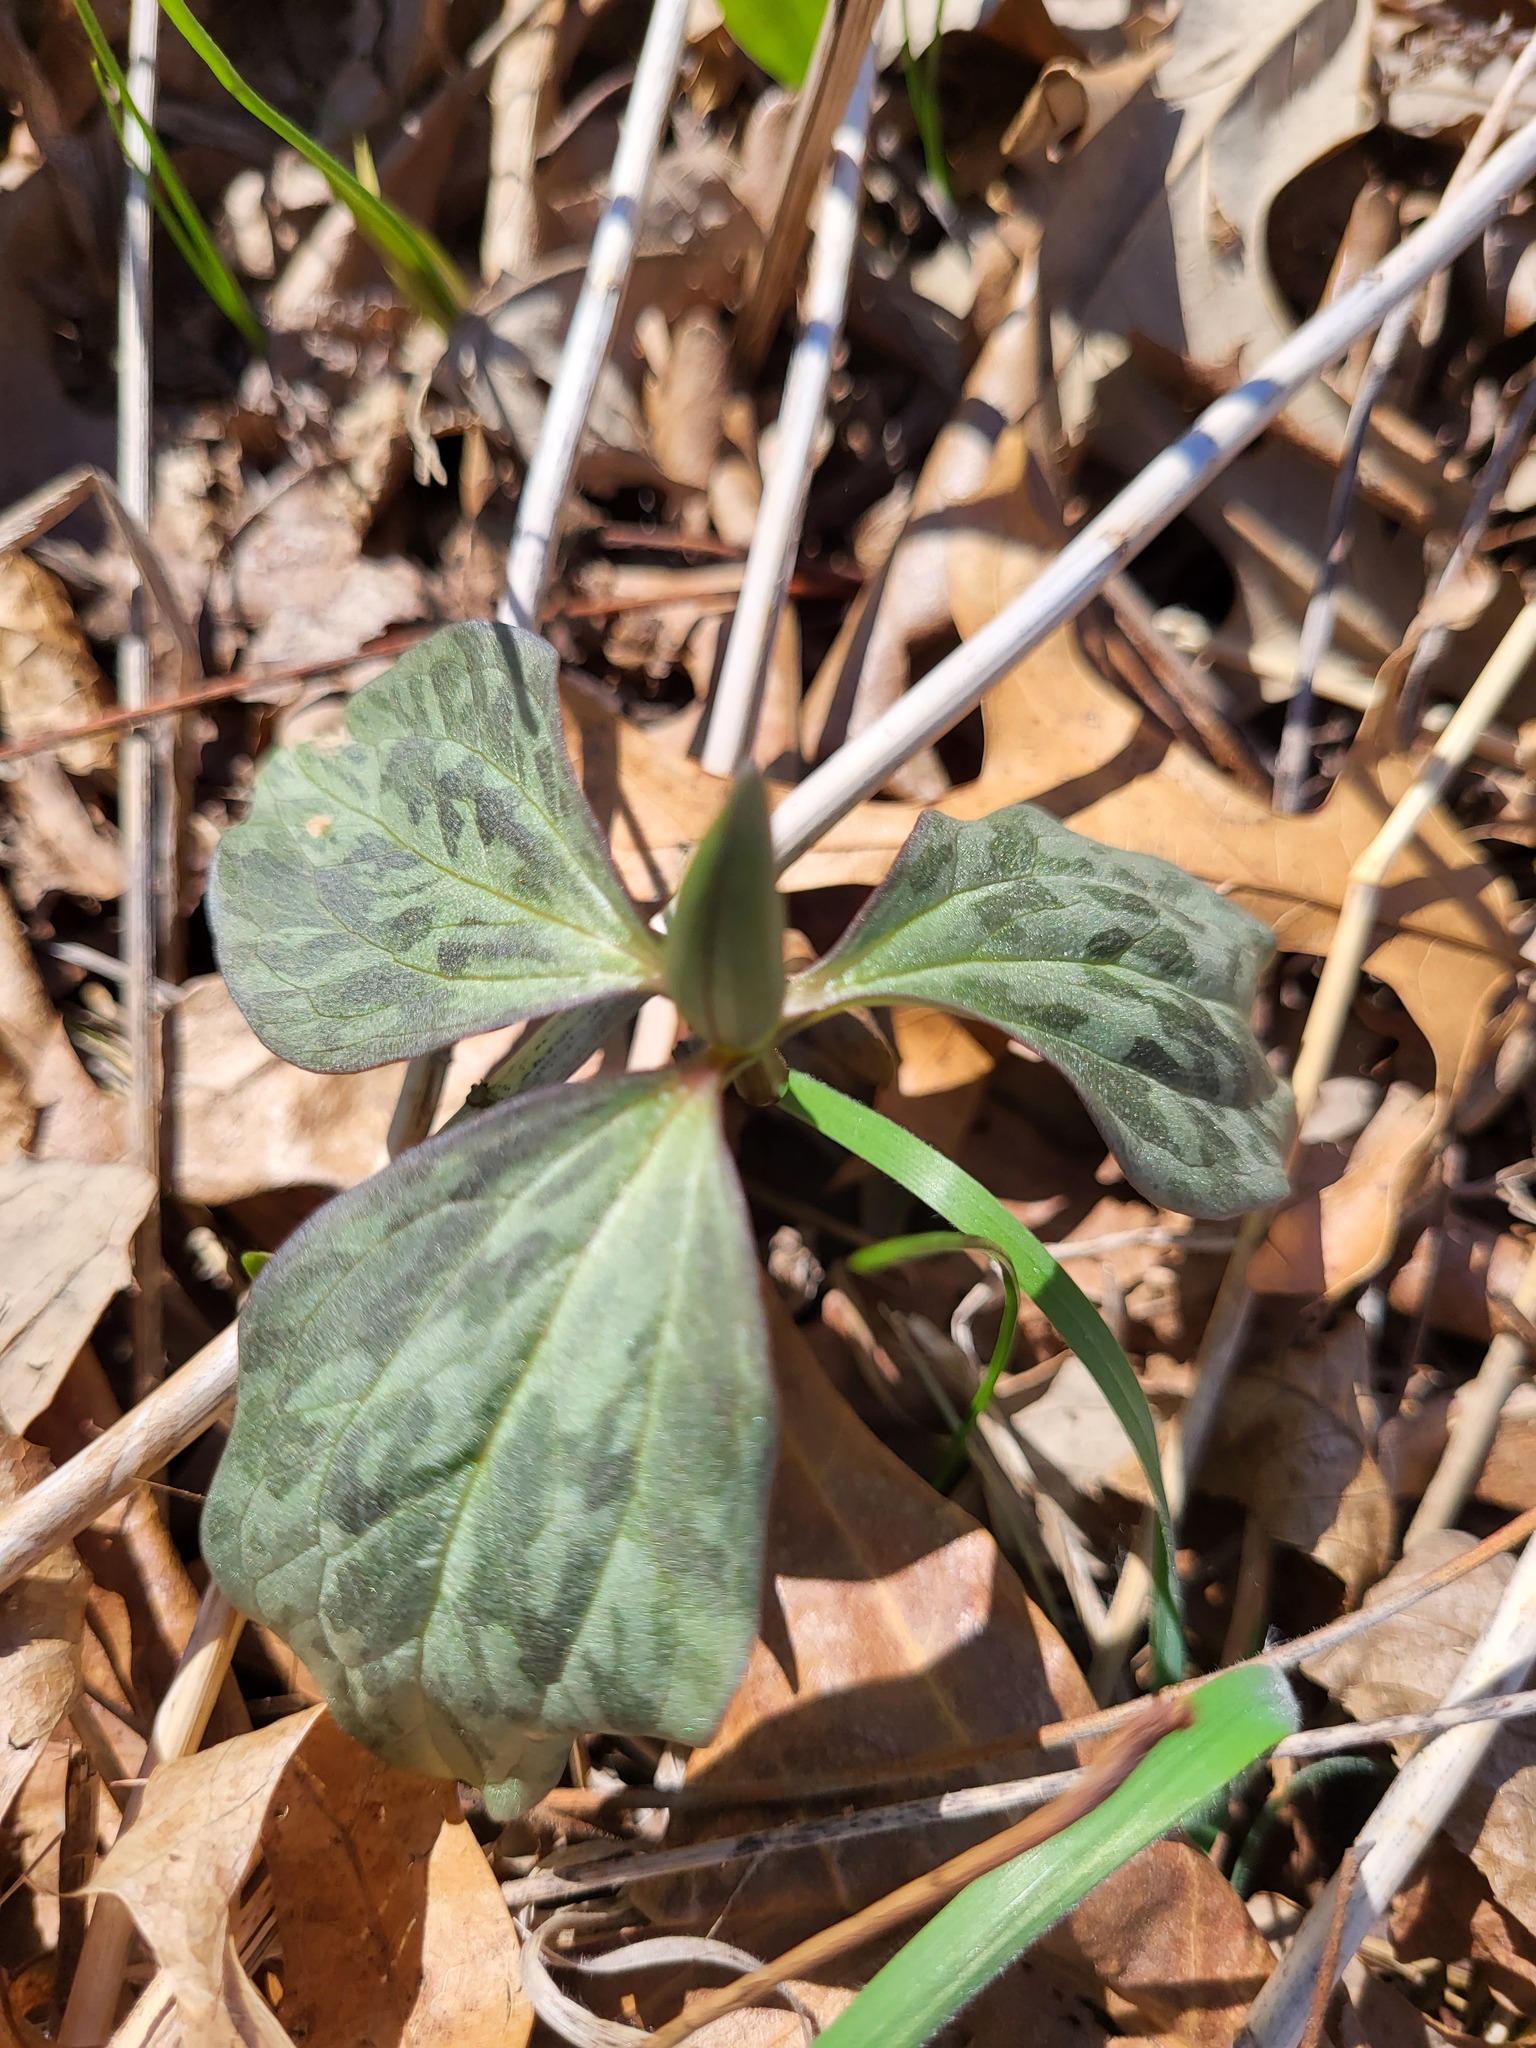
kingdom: Plantae
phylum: Tracheophyta
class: Liliopsida
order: Liliales
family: Melanthiaceae
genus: Trillium
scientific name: Trillium recurvatum
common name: Bloody butcher
